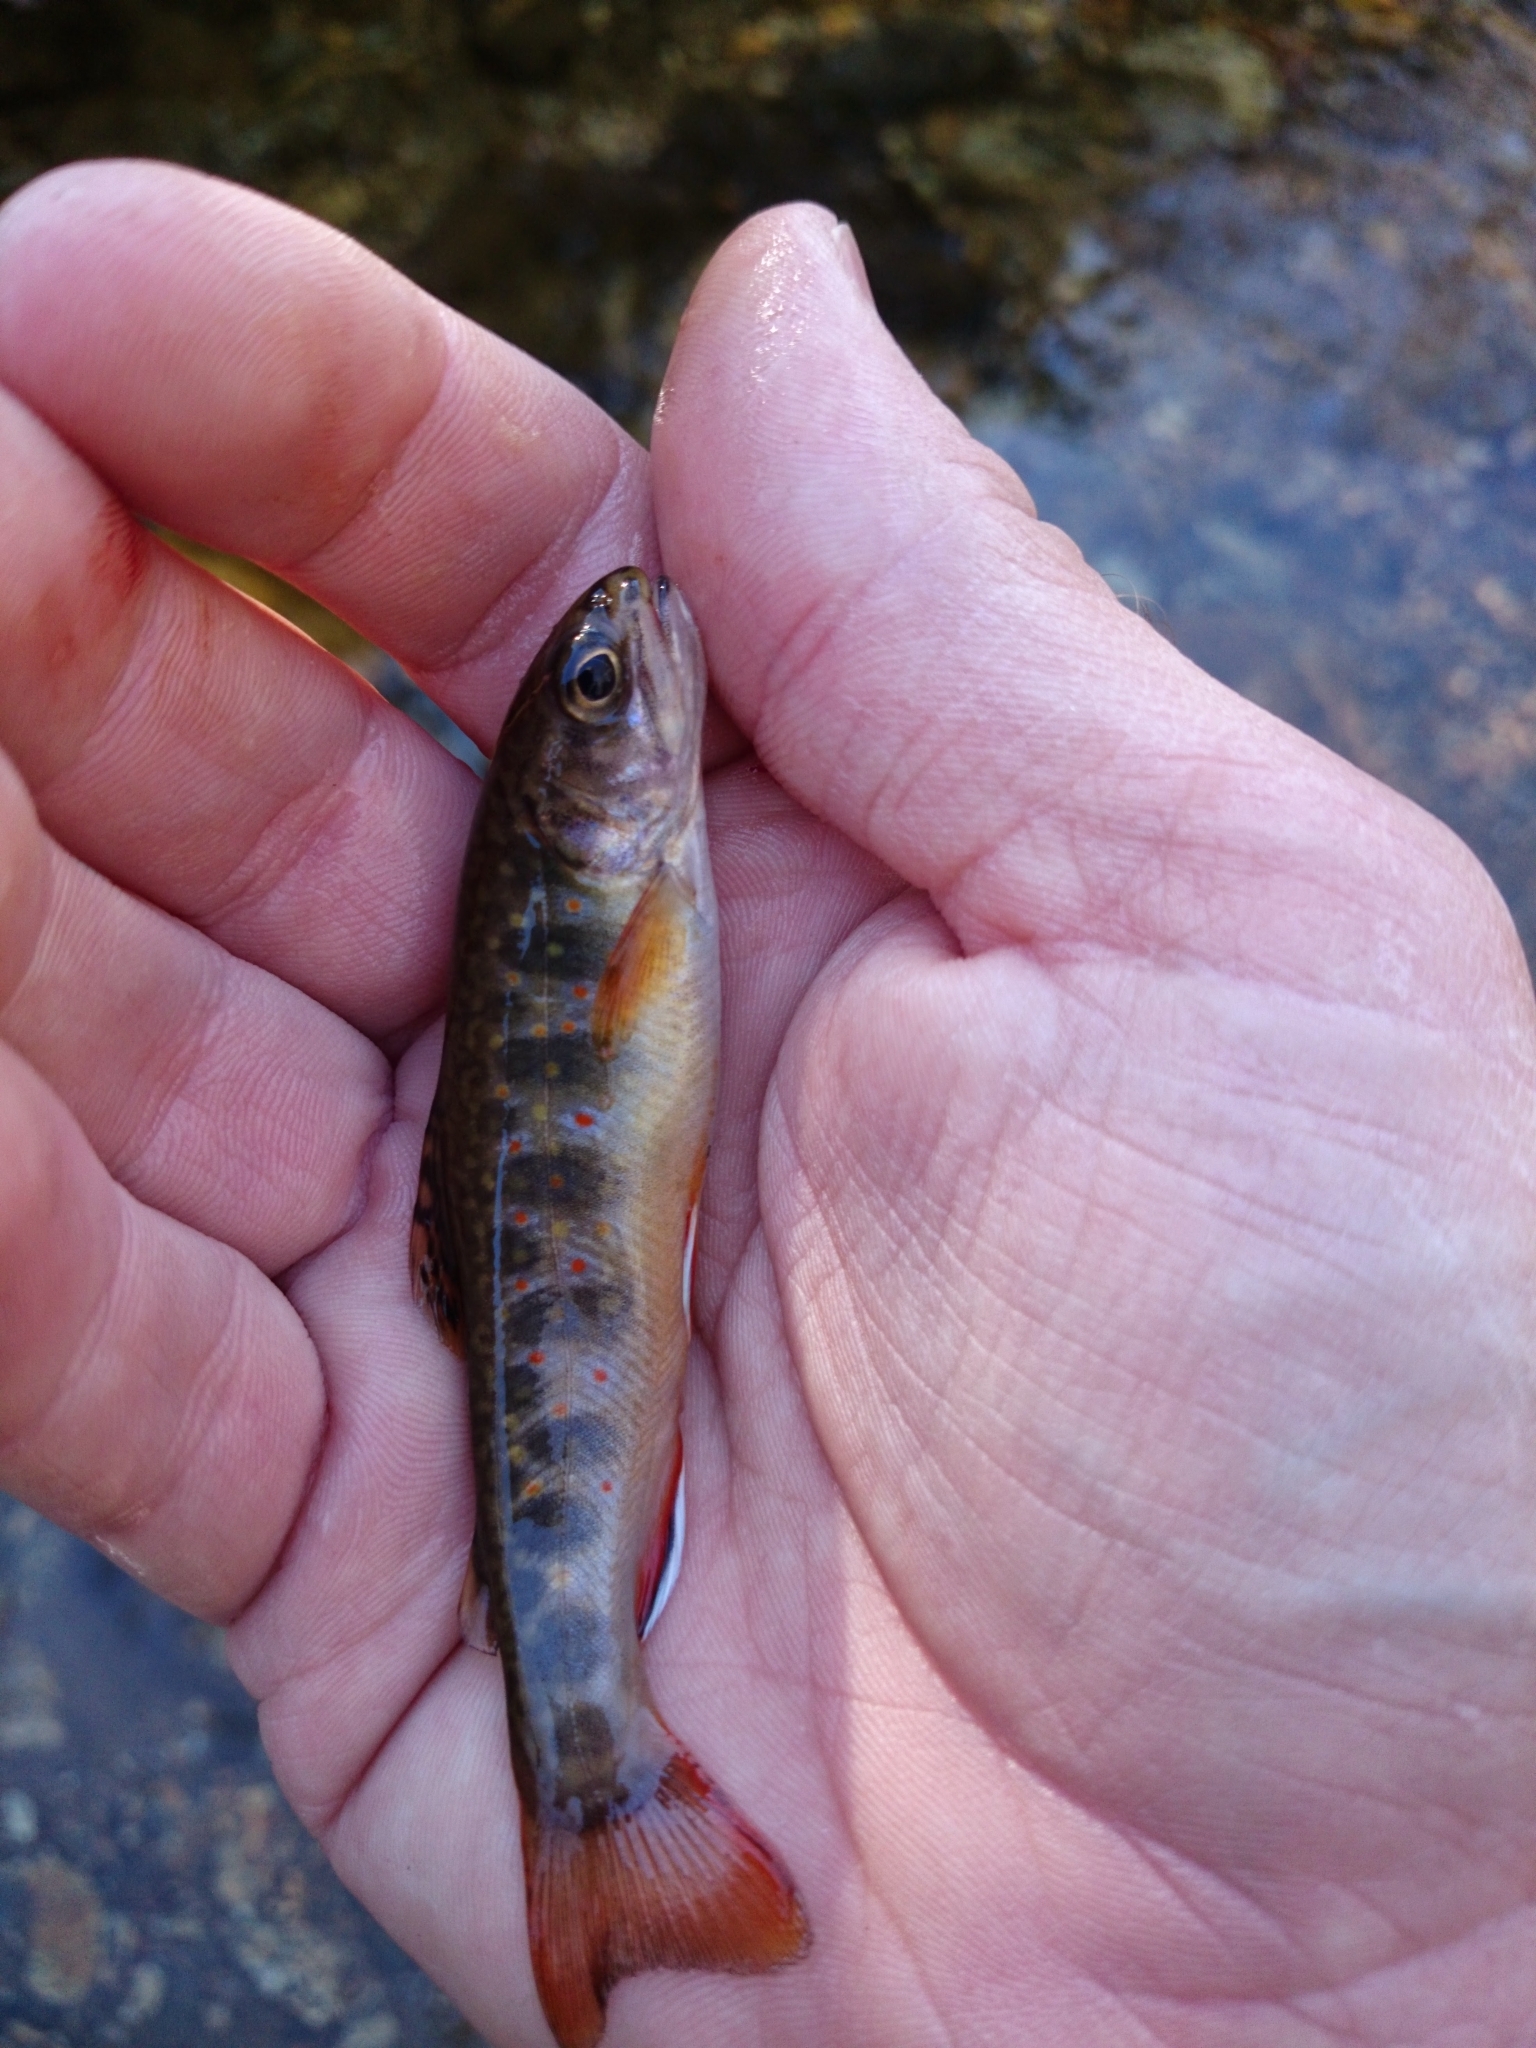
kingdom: Animalia
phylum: Chordata
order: Salmoniformes
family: Salmonidae
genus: Salvelinus
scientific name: Salvelinus fontinalis
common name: Brook trout
